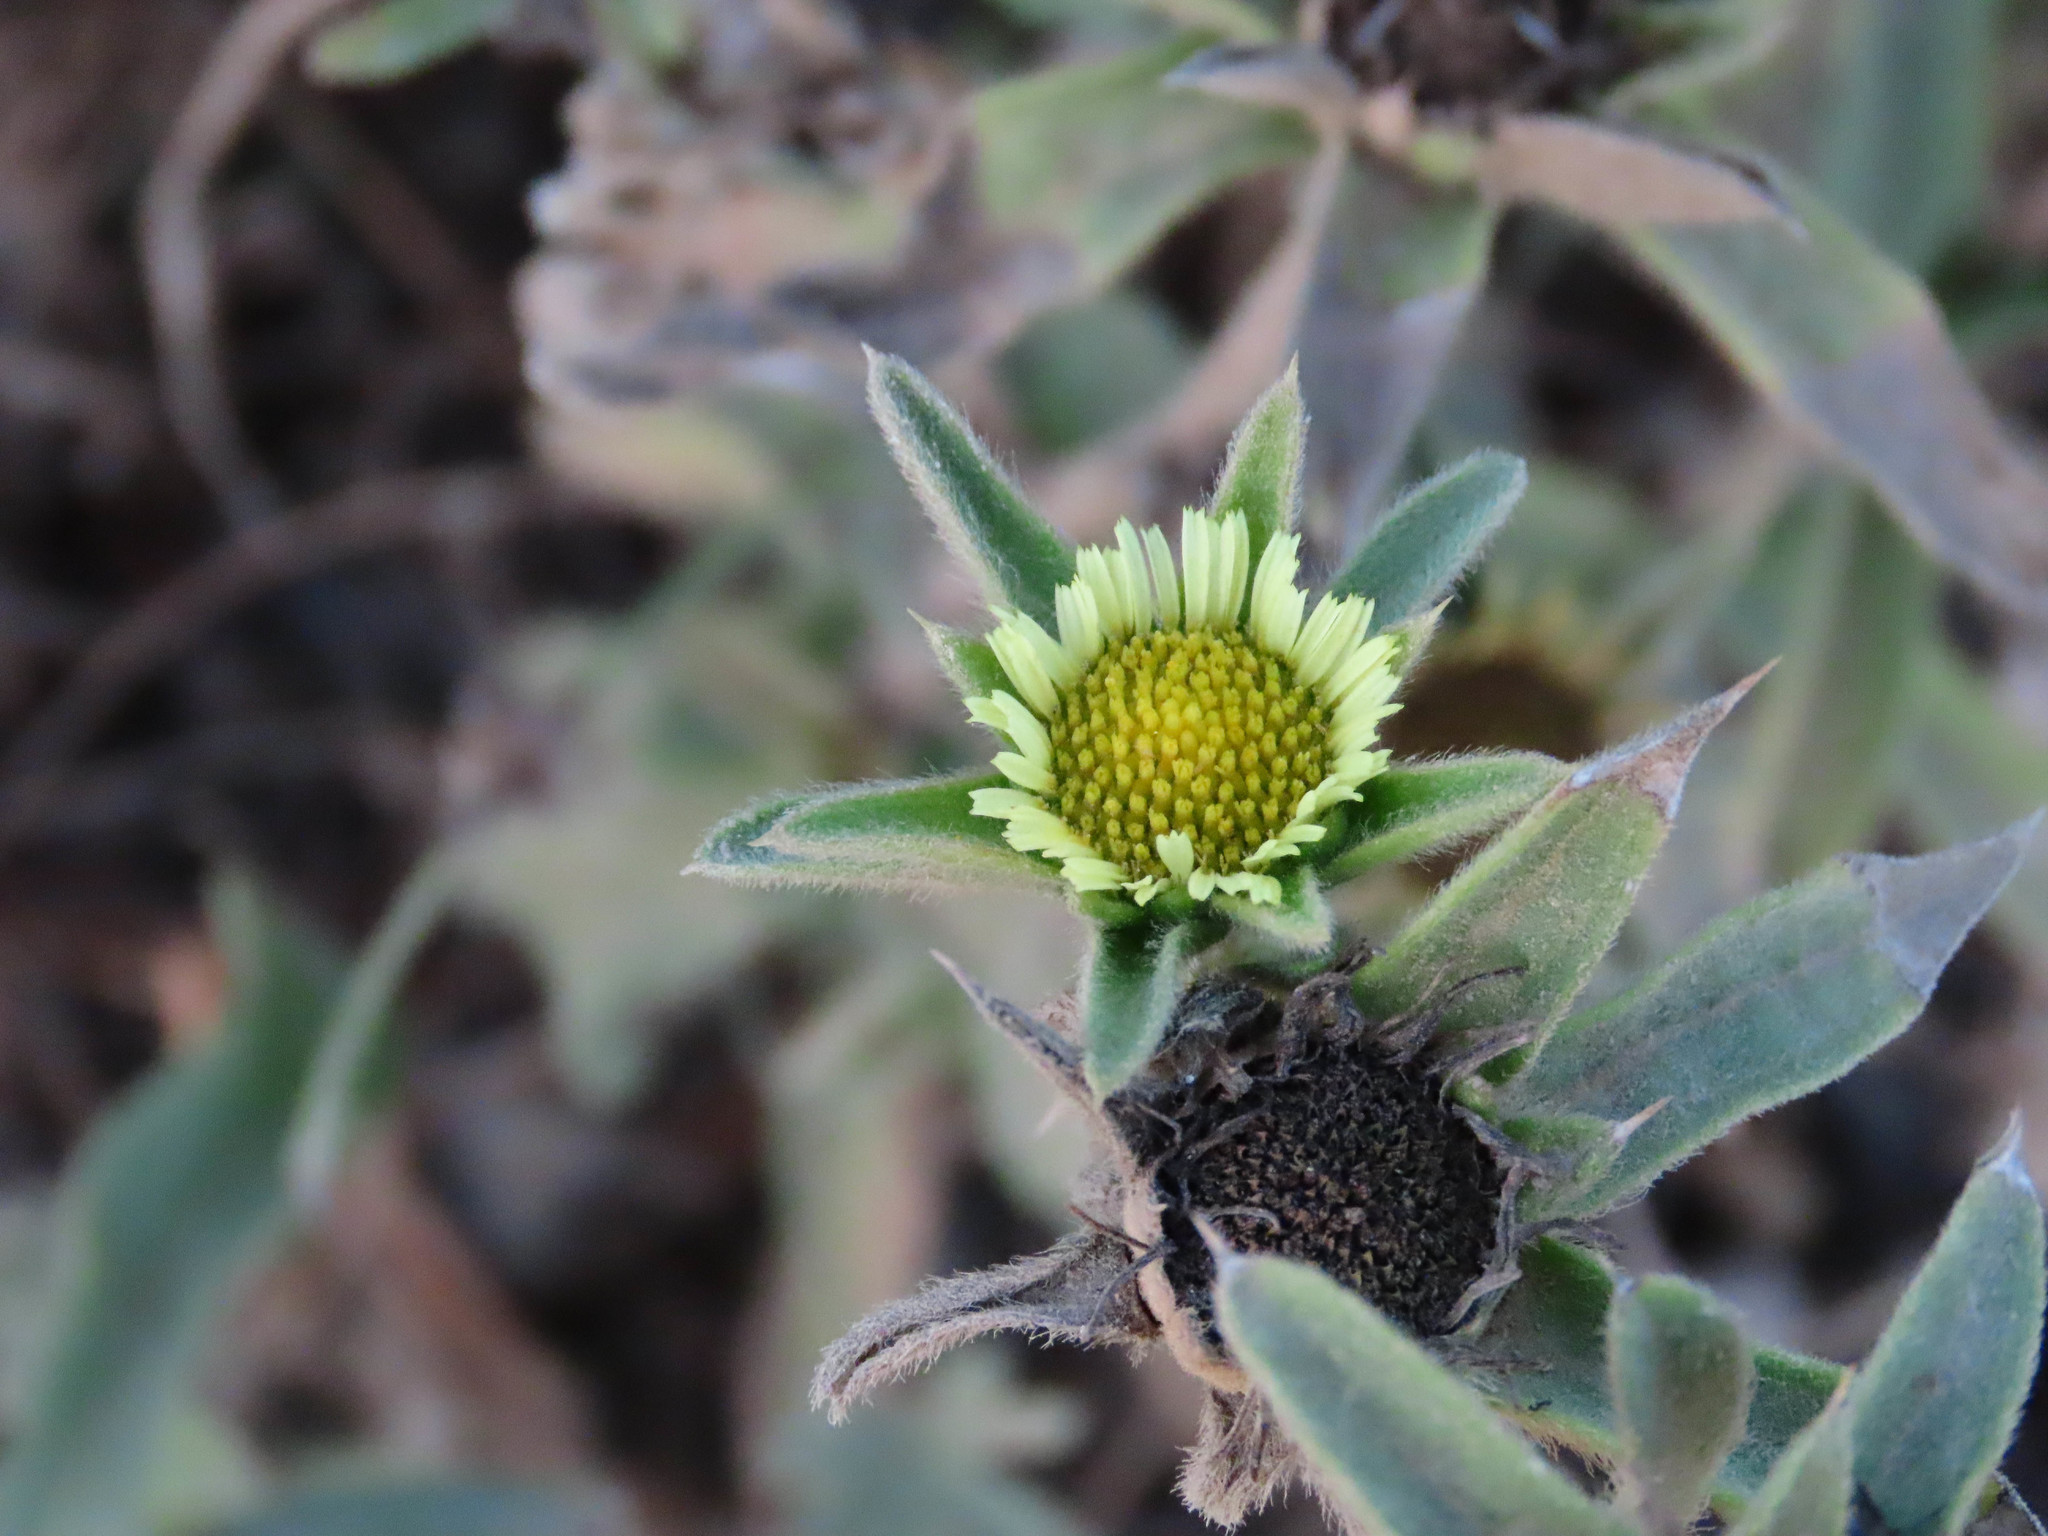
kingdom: Plantae
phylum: Tracheophyta
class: Magnoliopsida
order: Asterales
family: Asteraceae
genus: Pallenis
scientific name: Pallenis spinosa
